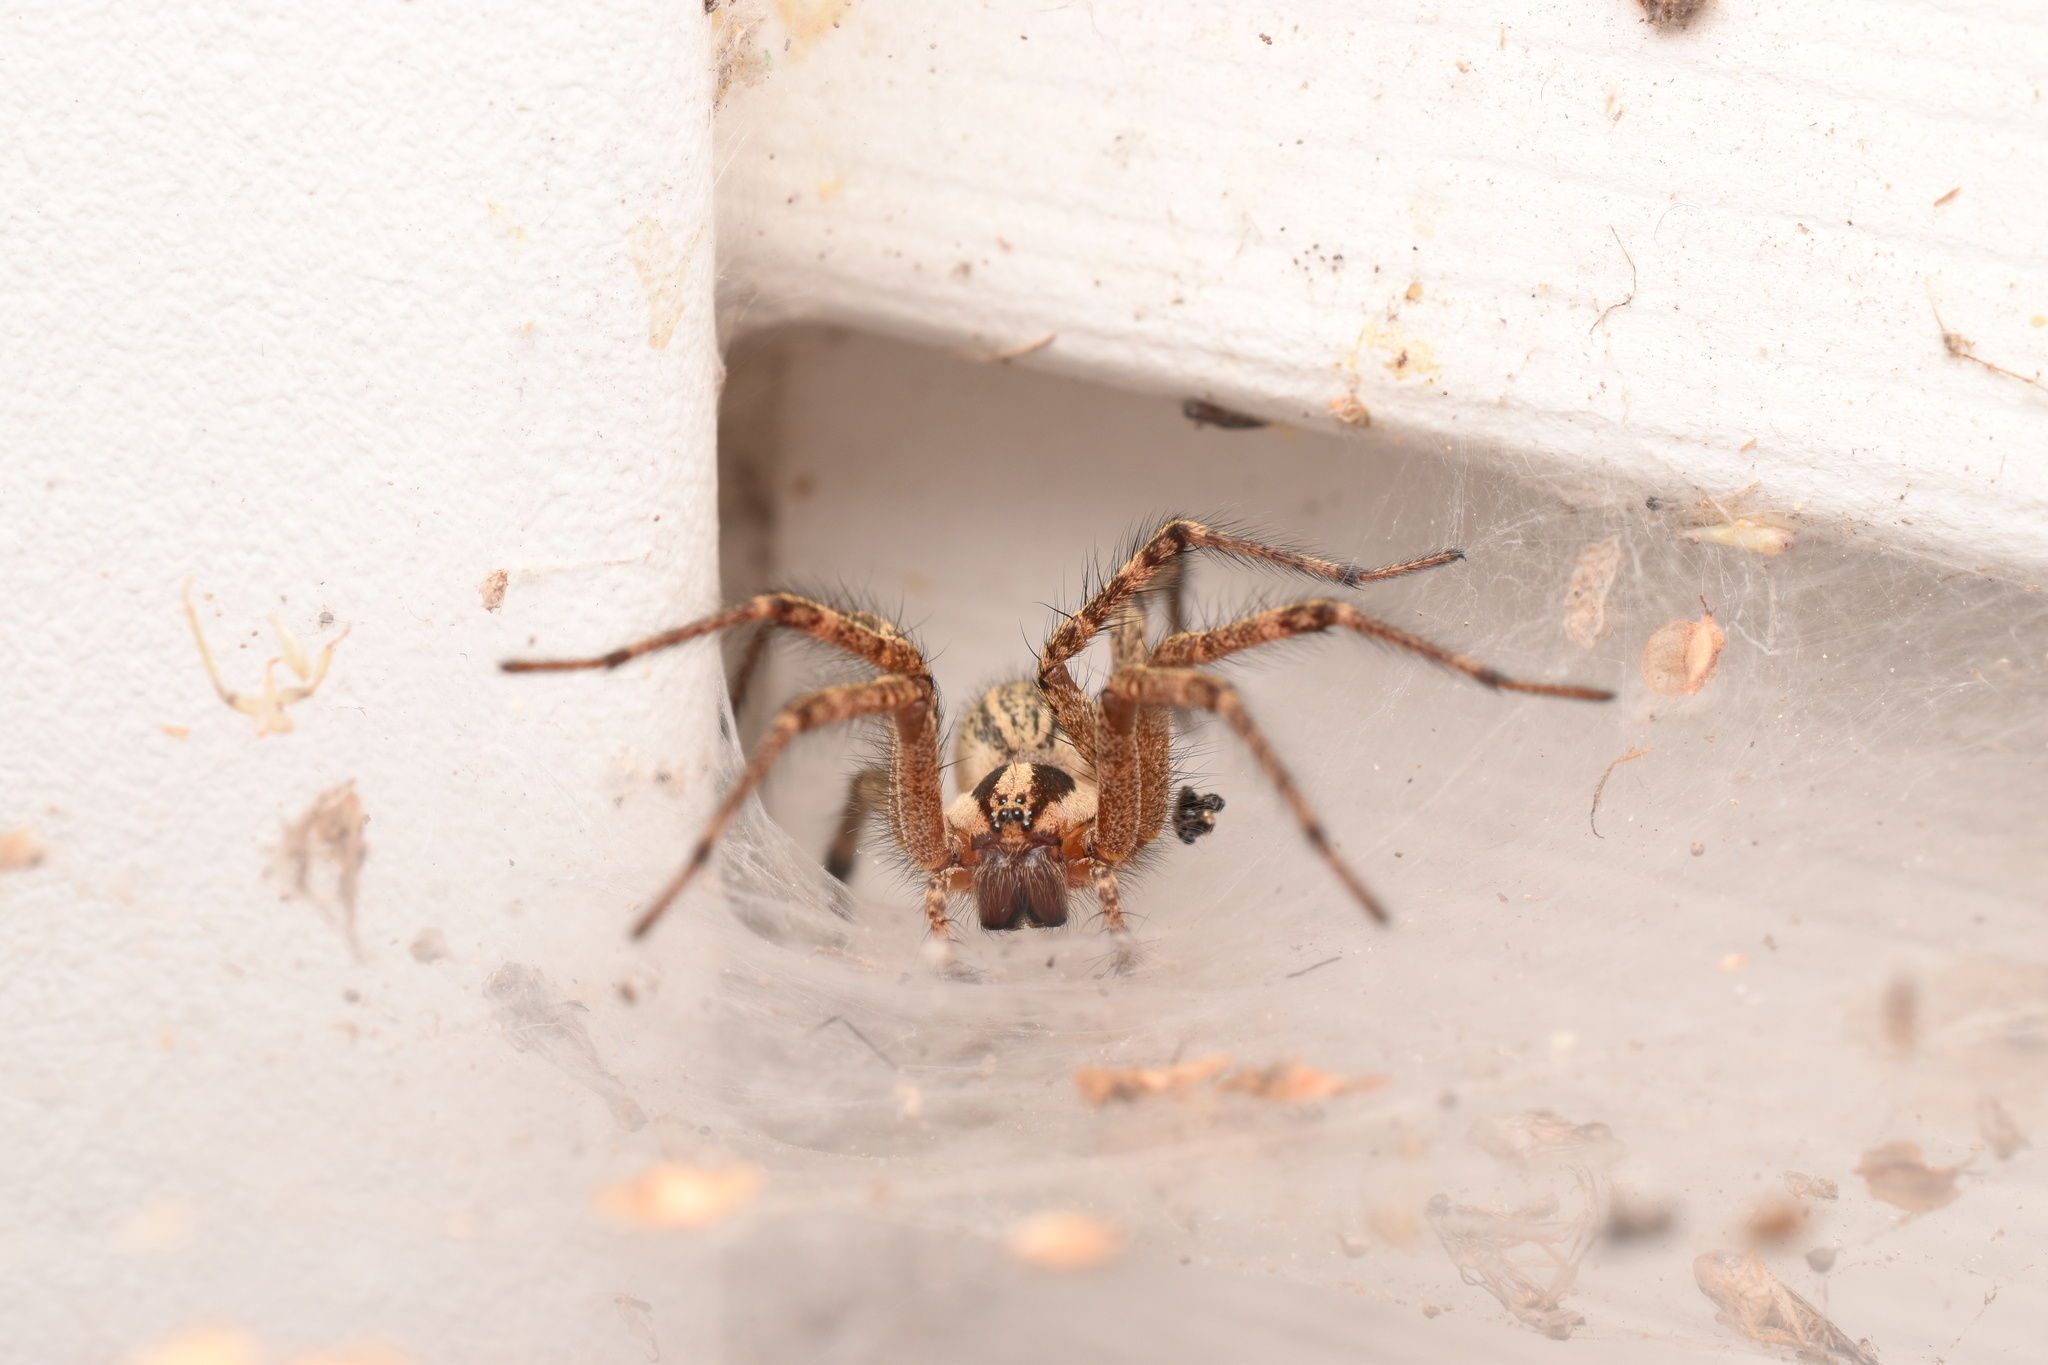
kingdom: Animalia
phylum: Arthropoda
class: Arachnida
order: Araneae
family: Agelenidae
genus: Agelenopsis
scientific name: Agelenopsis
